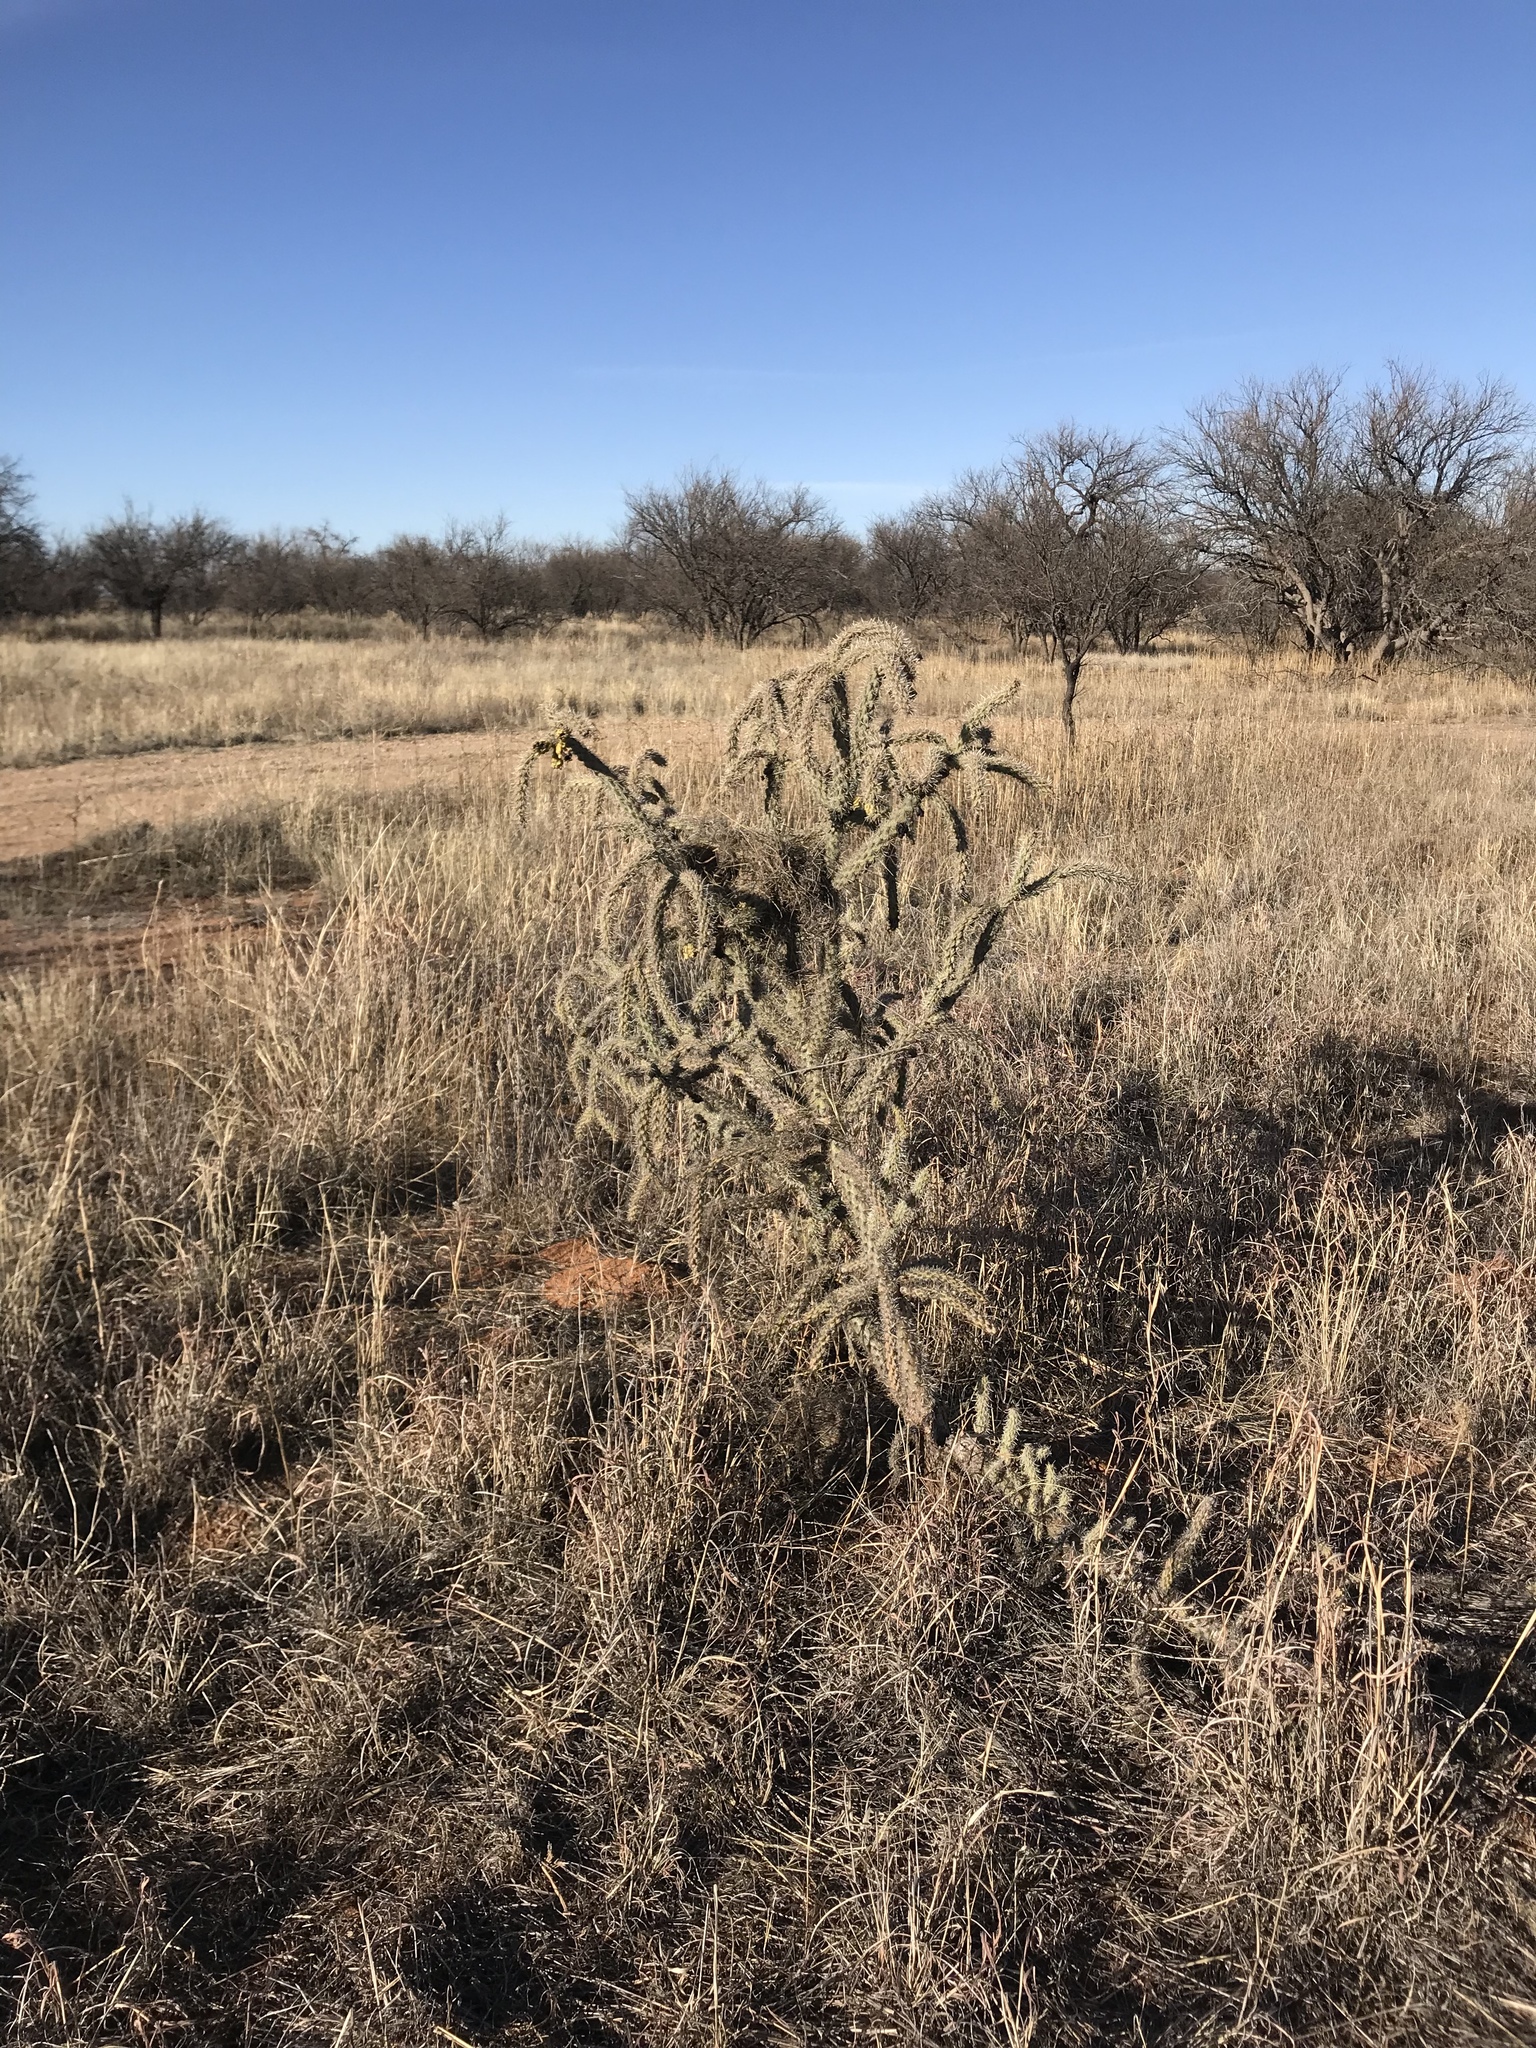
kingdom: Plantae
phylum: Tracheophyta
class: Magnoliopsida
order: Caryophyllales
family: Cactaceae
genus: Cylindropuntia
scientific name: Cylindropuntia imbricata
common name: Candelabrum cactus
